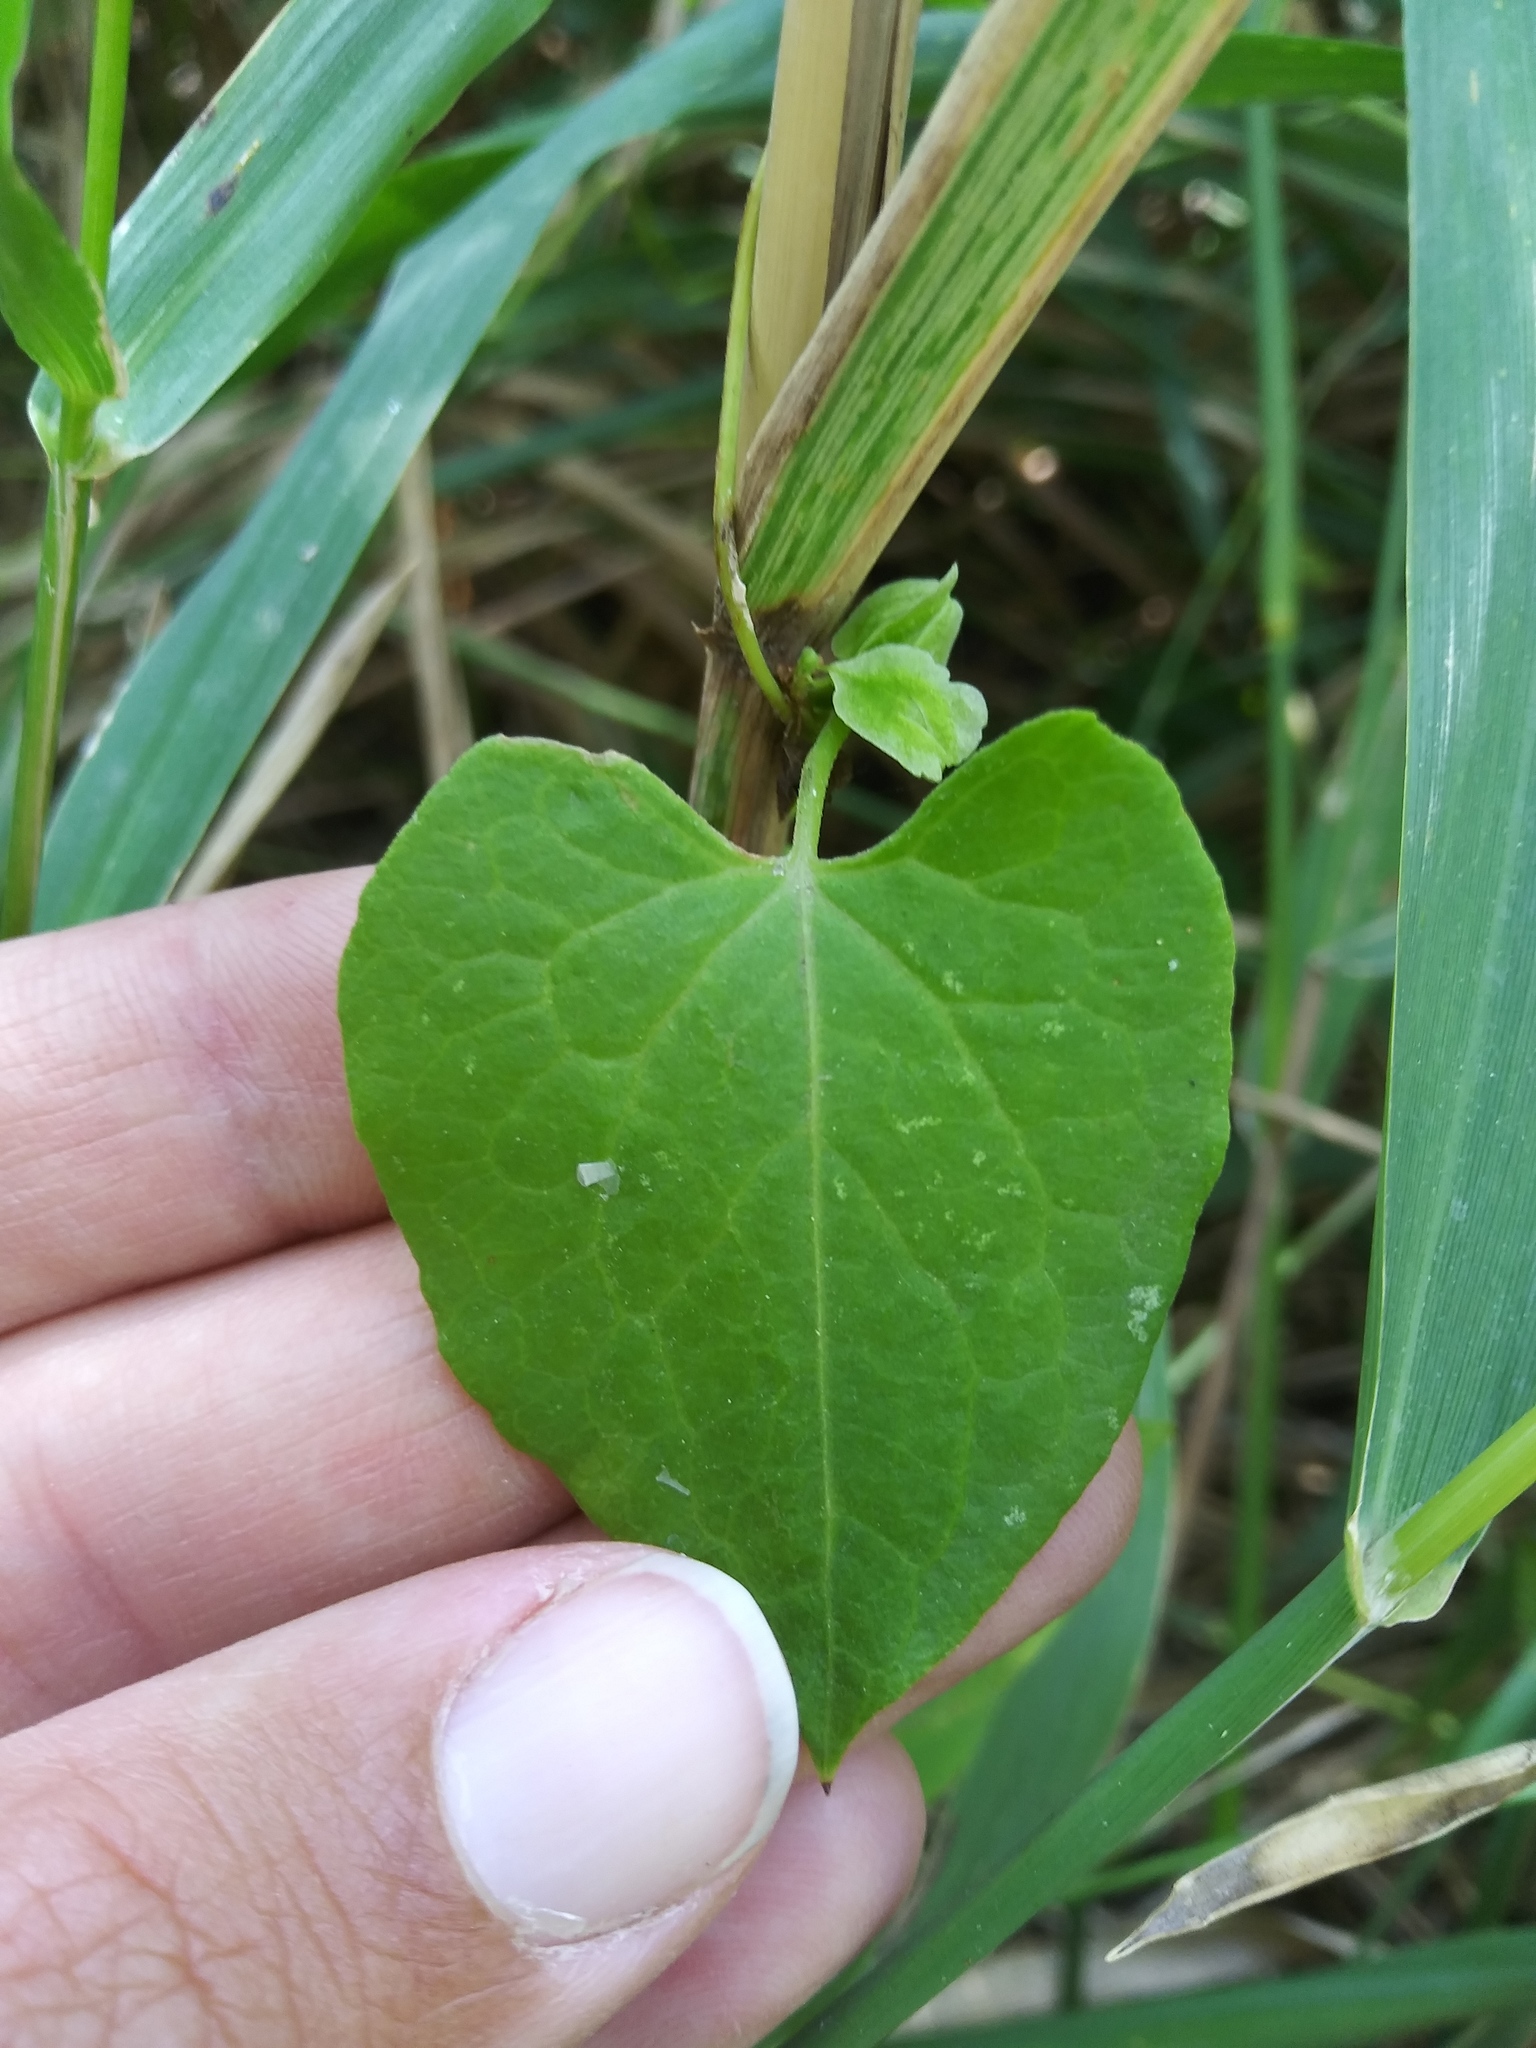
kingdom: Plantae
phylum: Tracheophyta
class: Magnoliopsida
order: Caryophyllales
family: Polygonaceae
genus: Fallopia
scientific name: Fallopia scandens
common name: Climbing false buckwheat
